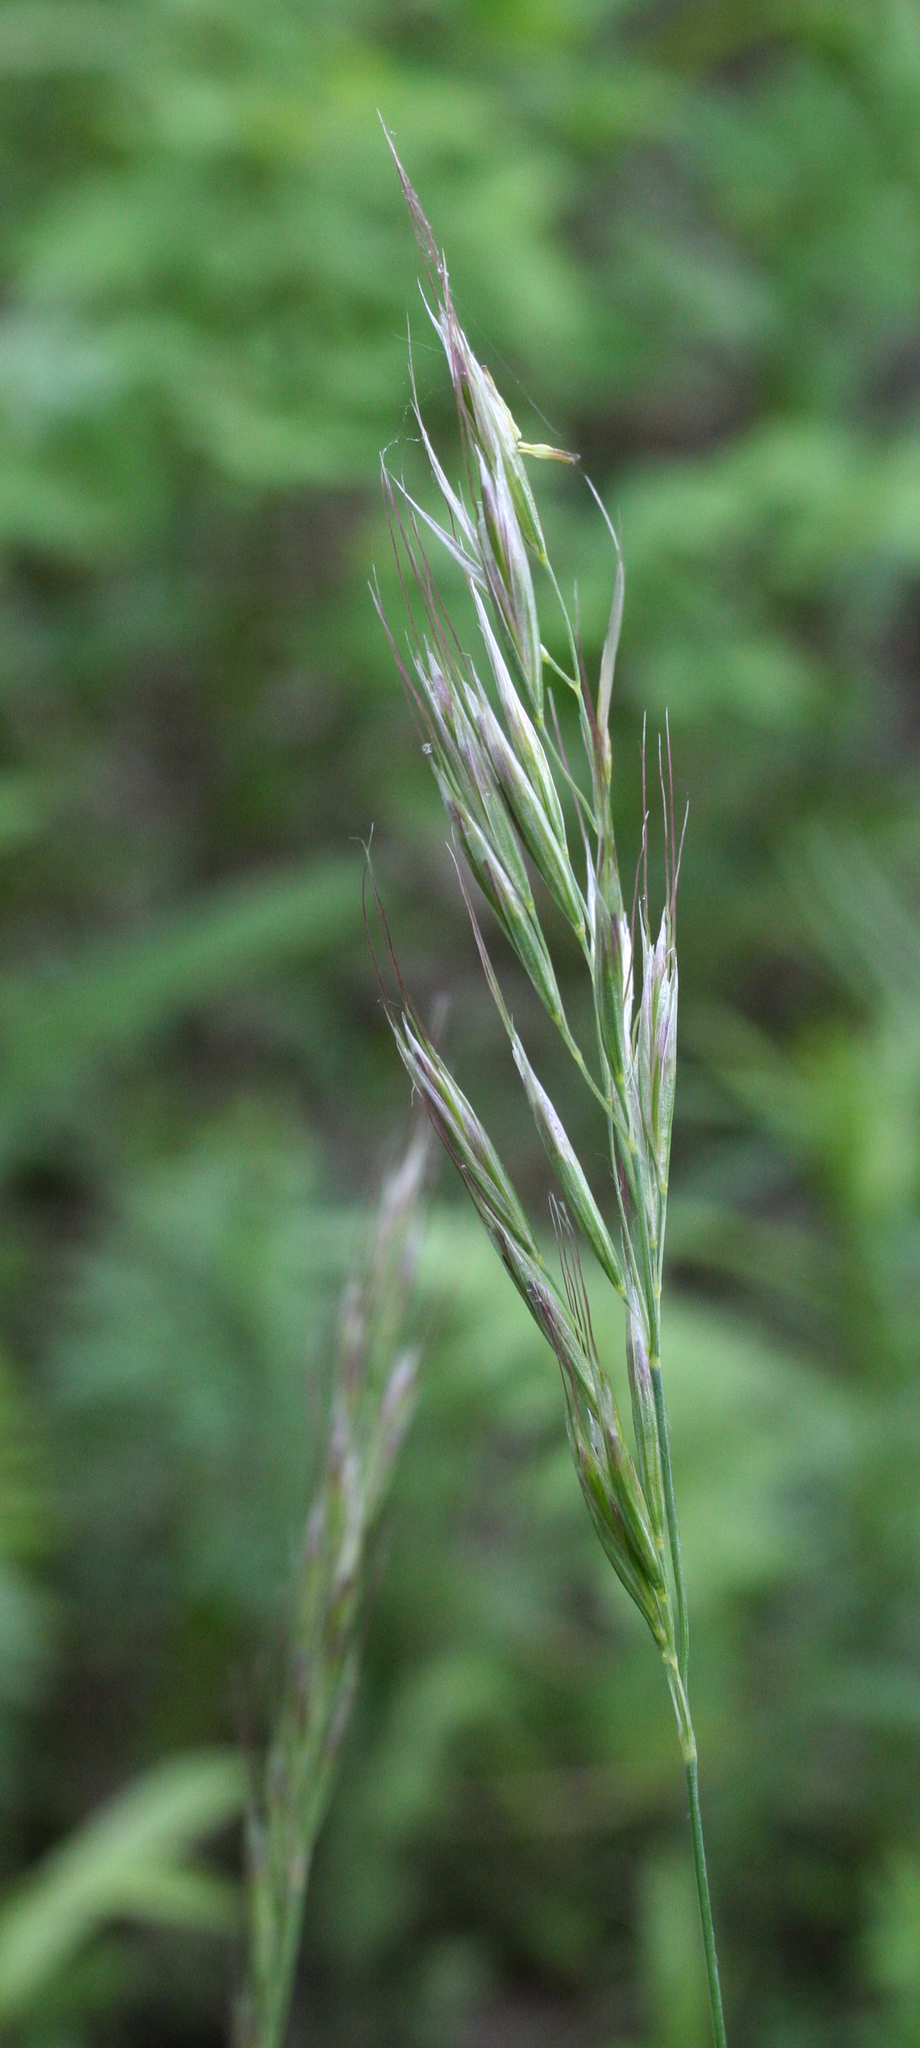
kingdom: Plantae
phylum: Tracheophyta
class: Liliopsida
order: Poales
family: Poaceae
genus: Avenula
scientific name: Avenula pubescens
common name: Downy alpine oatgrass
